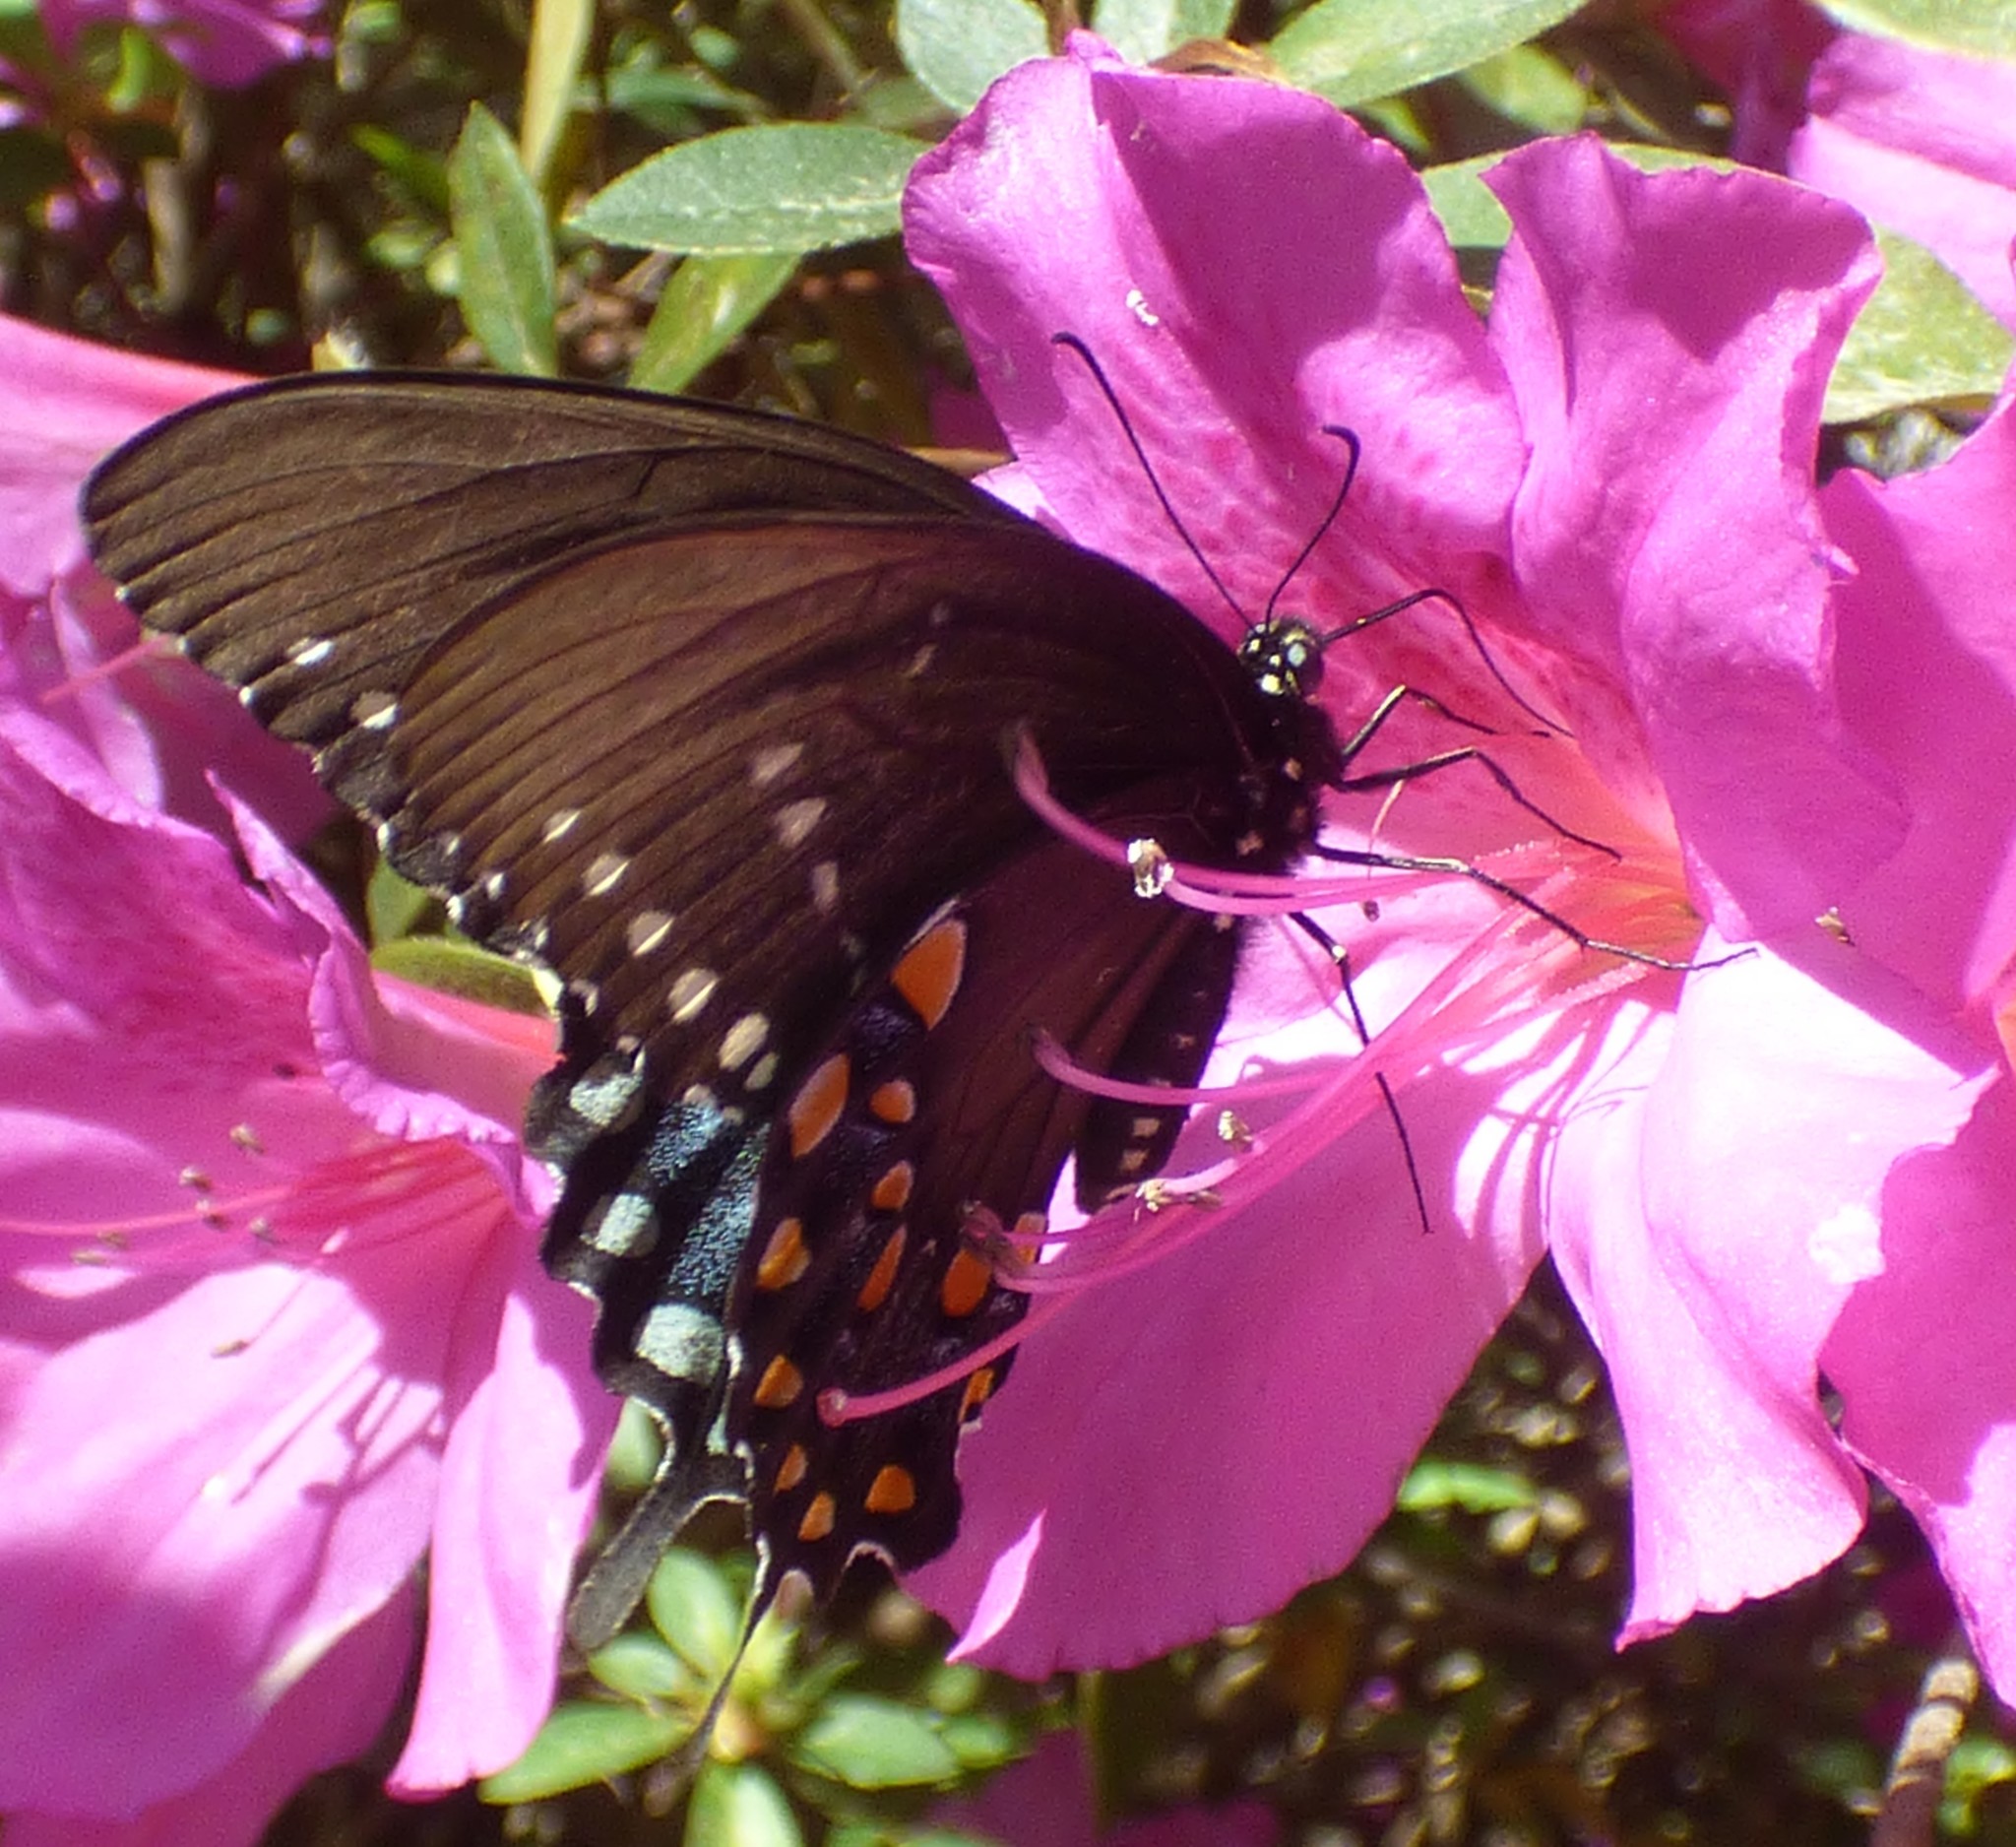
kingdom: Animalia
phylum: Arthropoda
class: Insecta
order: Lepidoptera
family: Papilionidae
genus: Papilio
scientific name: Papilio troilus
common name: Spicebush swallowtail
